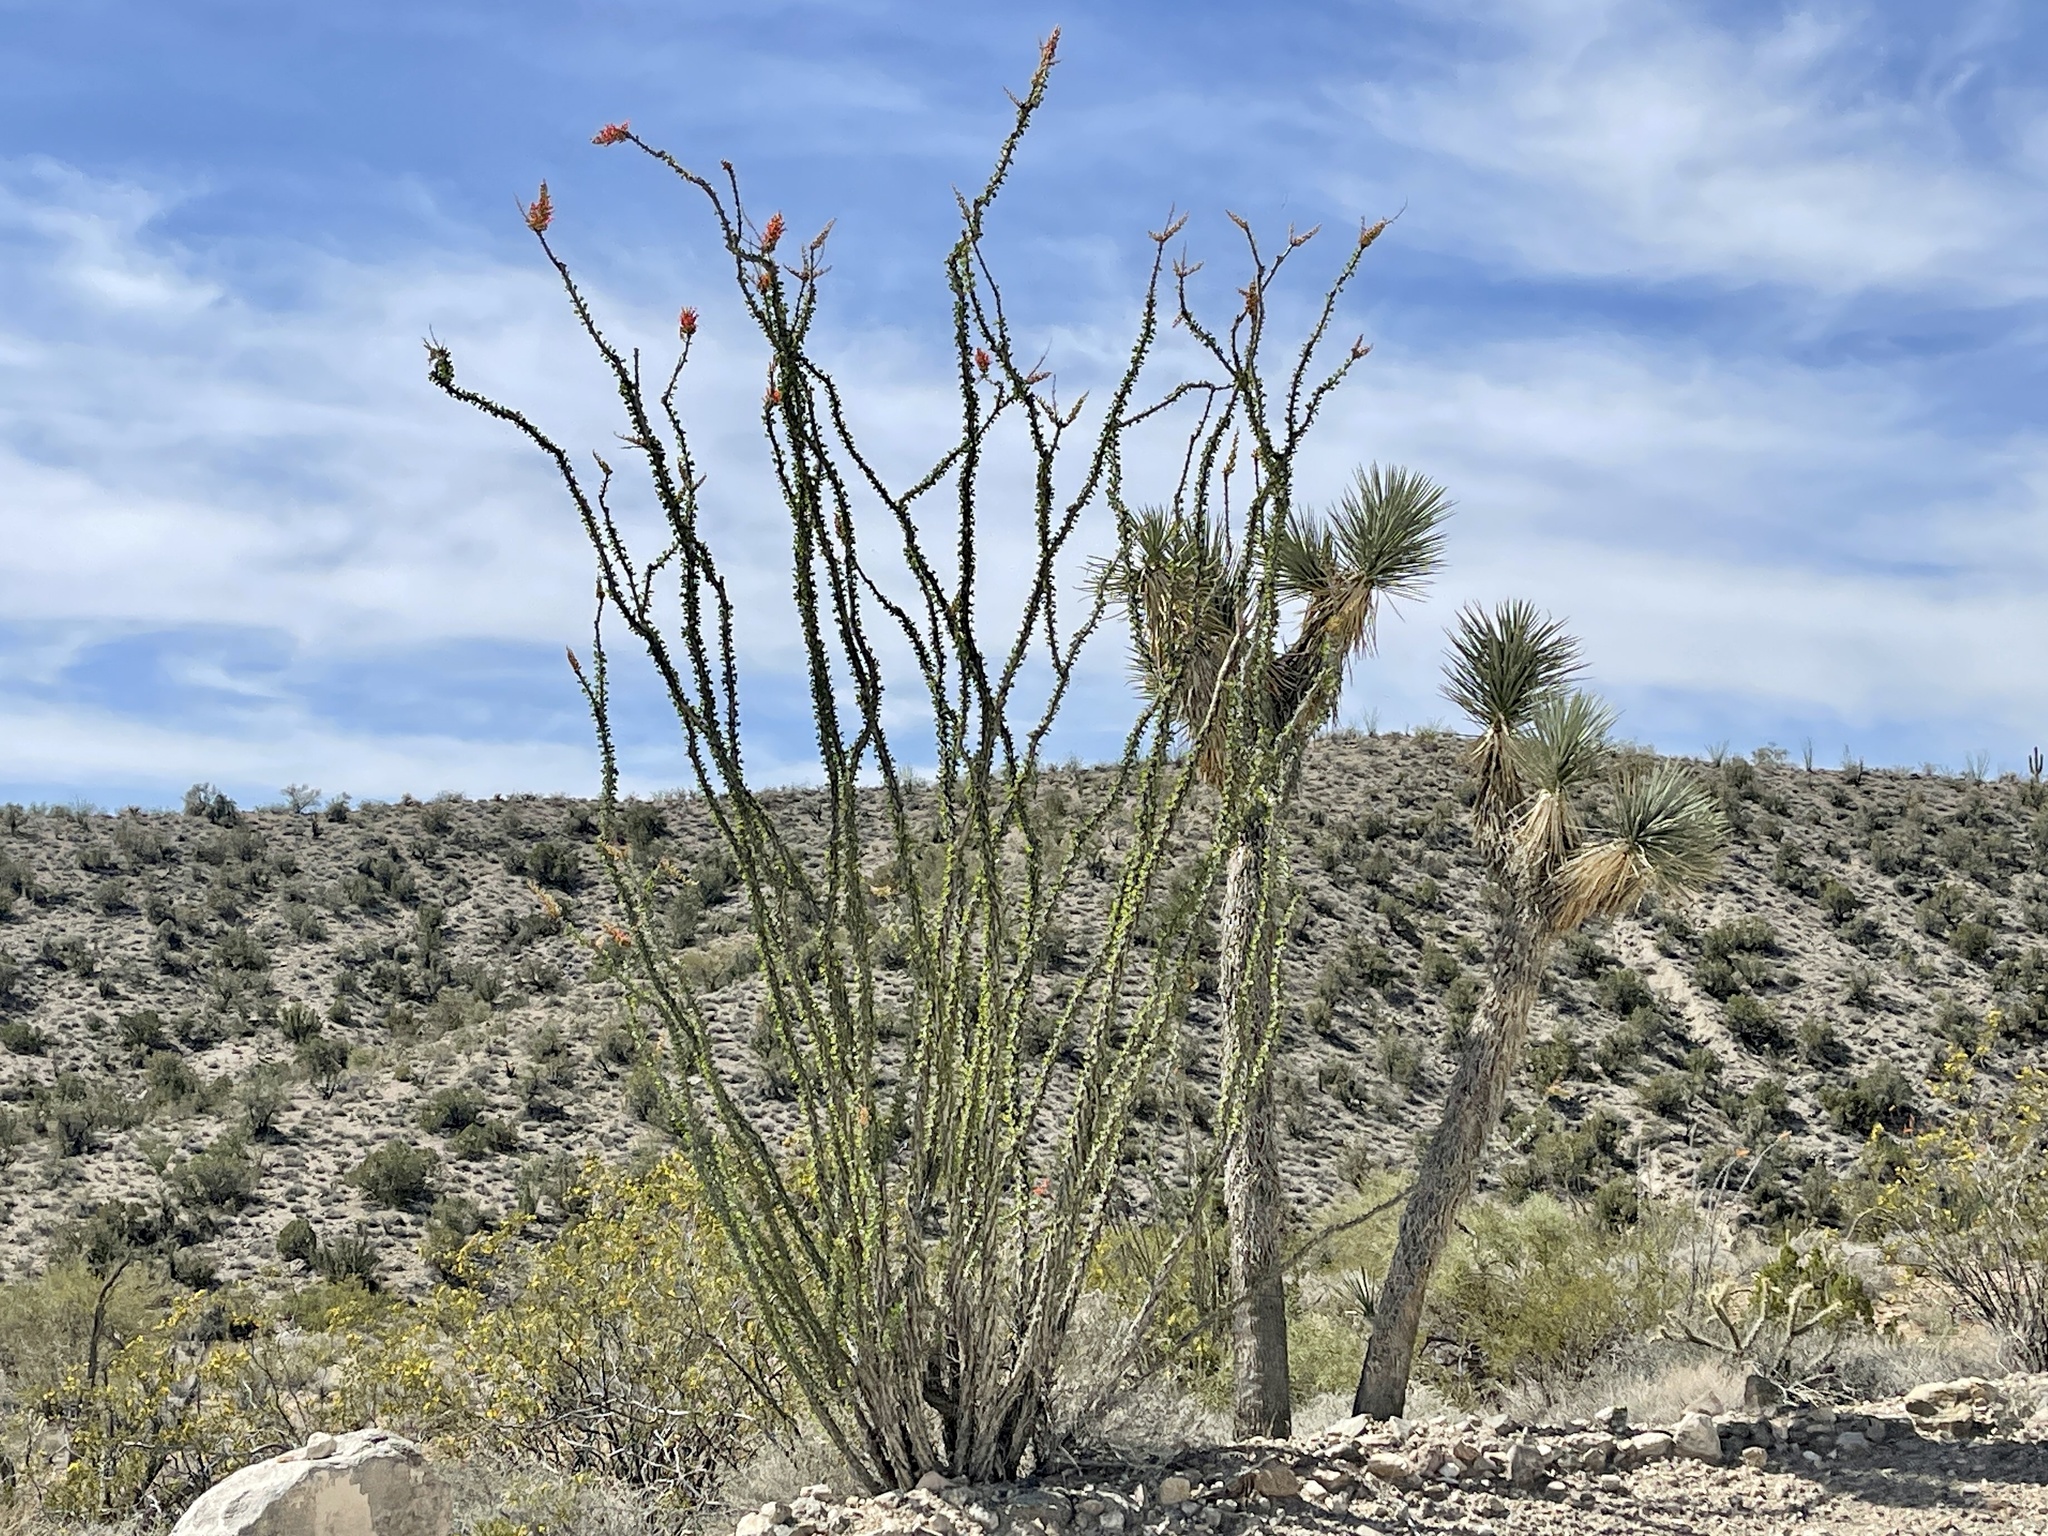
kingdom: Plantae
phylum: Tracheophyta
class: Magnoliopsida
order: Ericales
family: Fouquieriaceae
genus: Fouquieria
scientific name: Fouquieria splendens
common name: Vine-cactus
